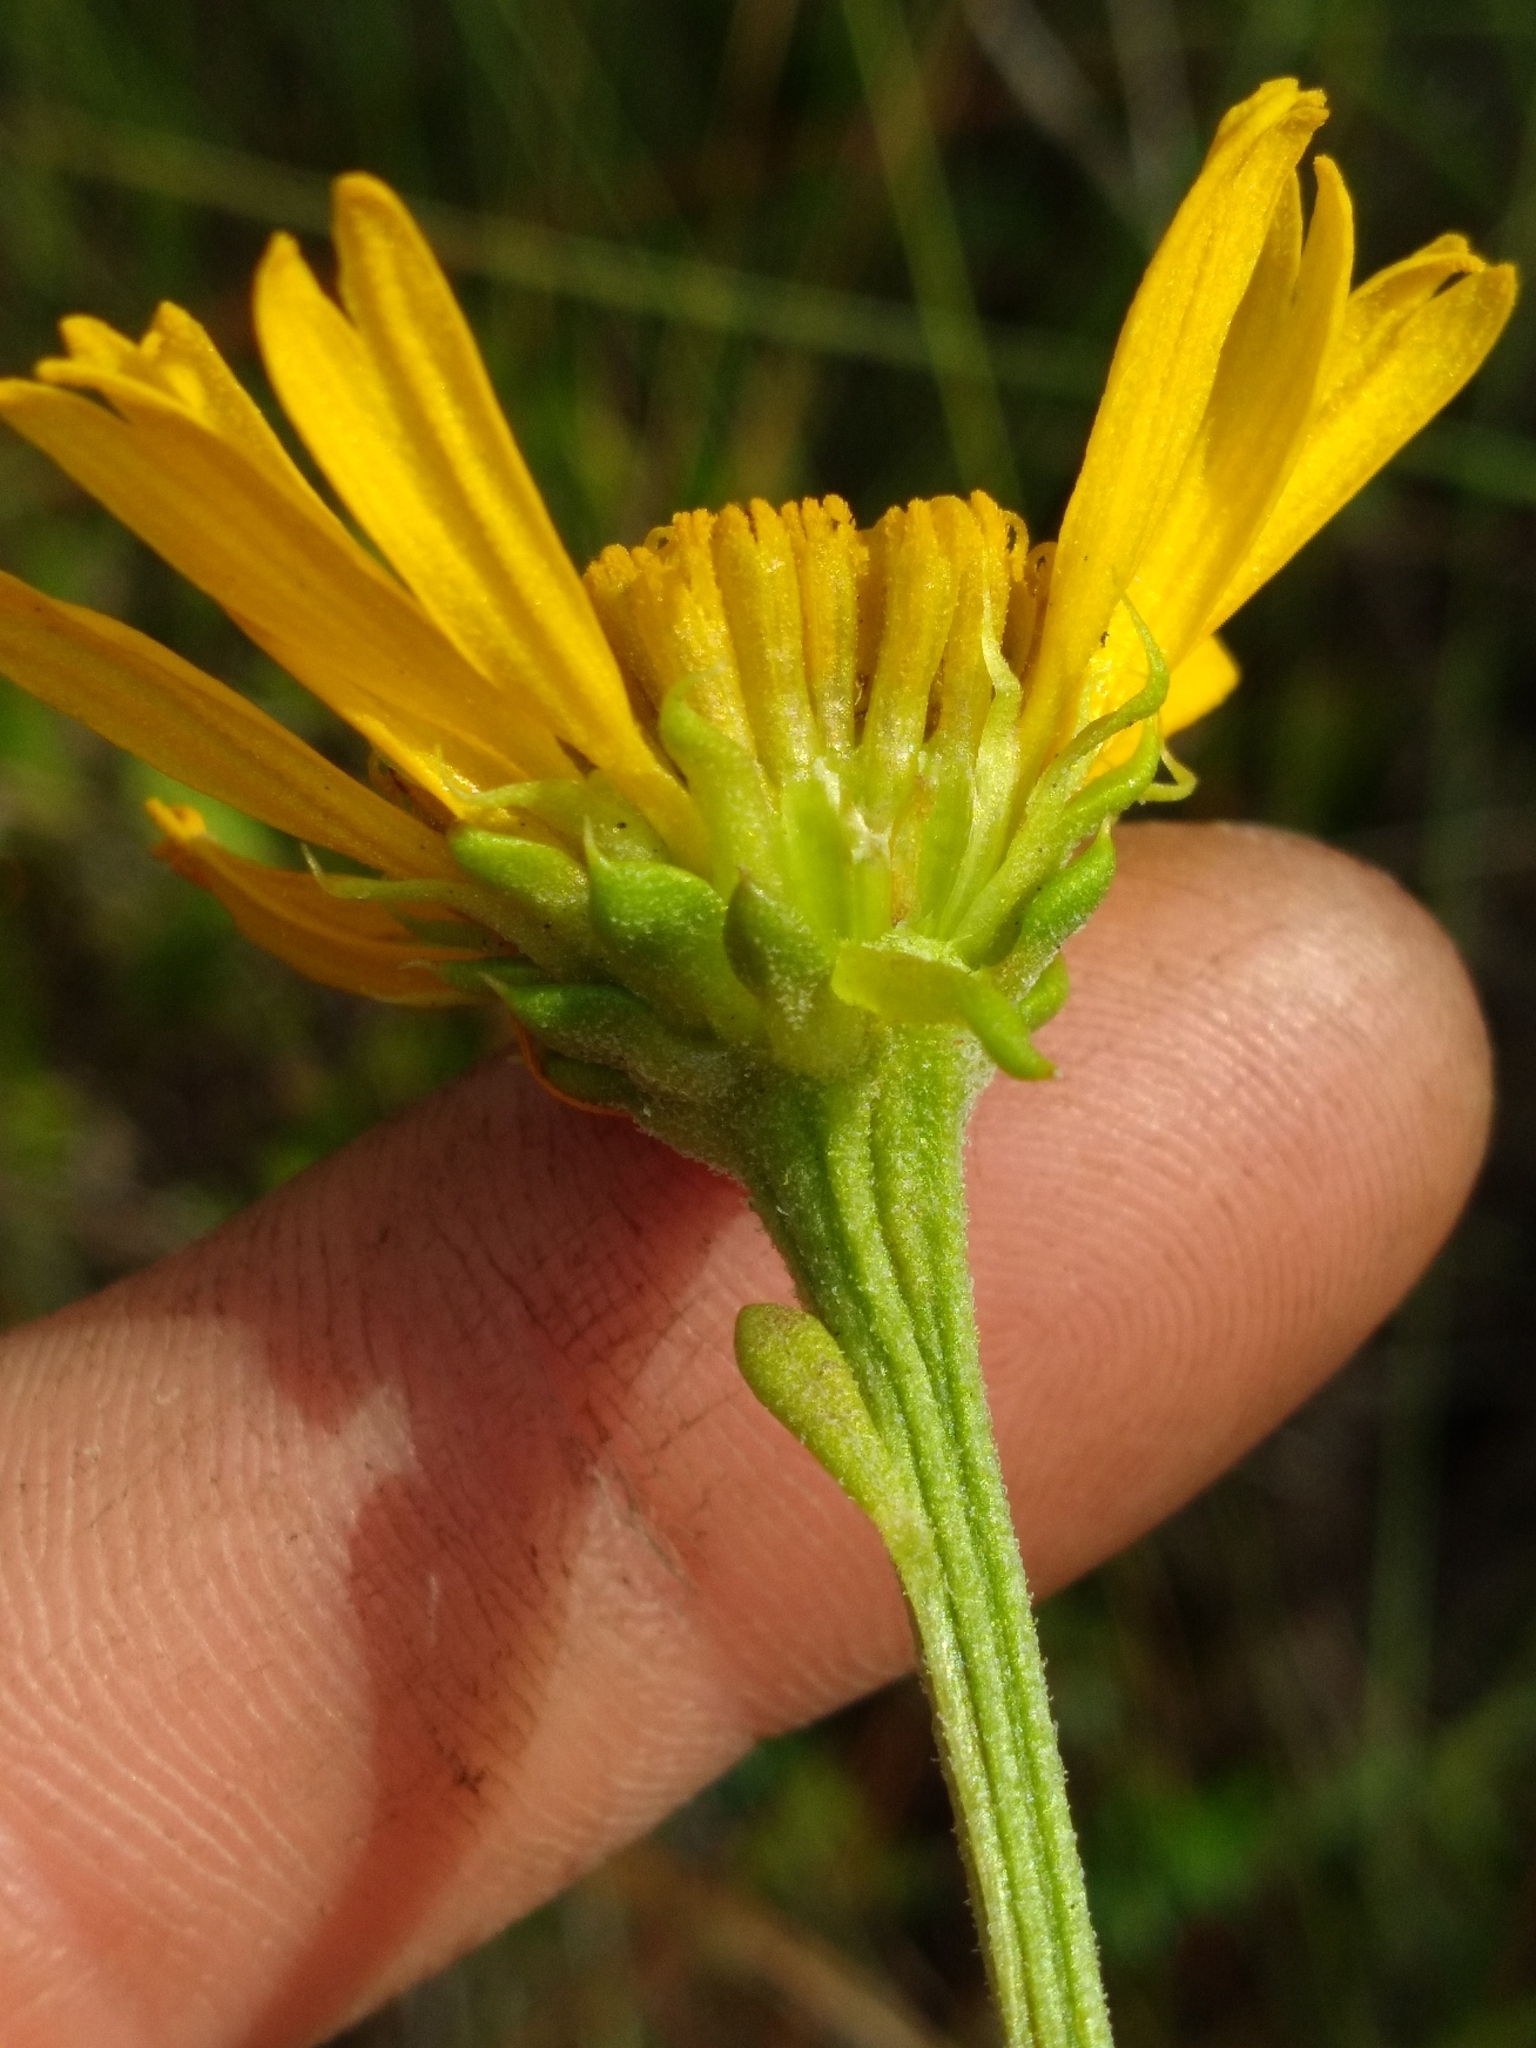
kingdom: Plantae
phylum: Tracheophyta
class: Magnoliopsida
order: Asterales
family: Asteraceae
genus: Balduina
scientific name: Balduina uniflora
